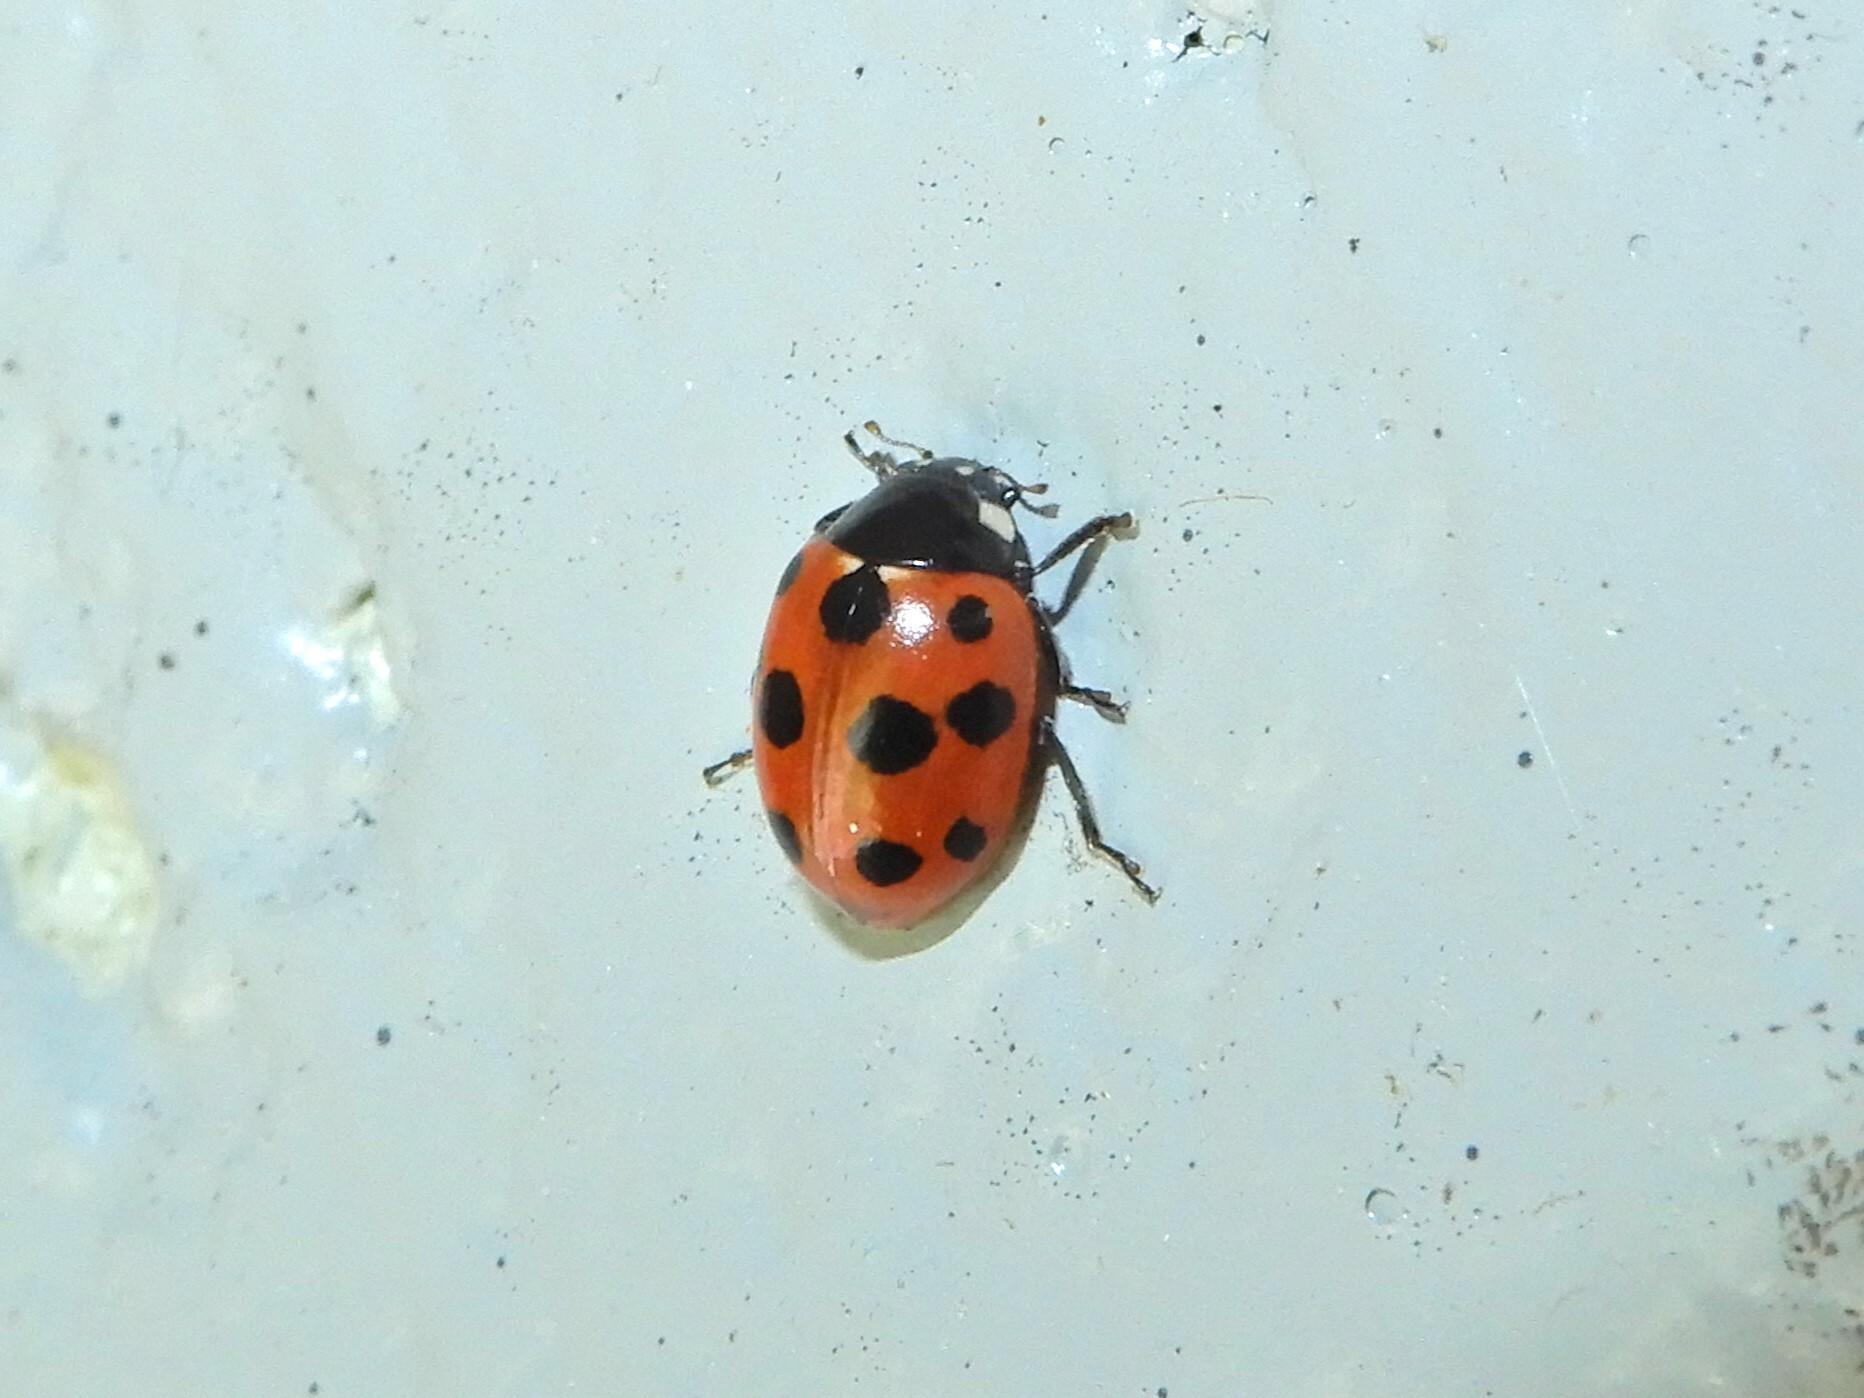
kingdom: Animalia
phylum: Arthropoda
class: Insecta
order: Coleoptera
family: Coccinellidae
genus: Coccinella
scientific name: Coccinella undecimpunctata
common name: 11-spot ladybird
